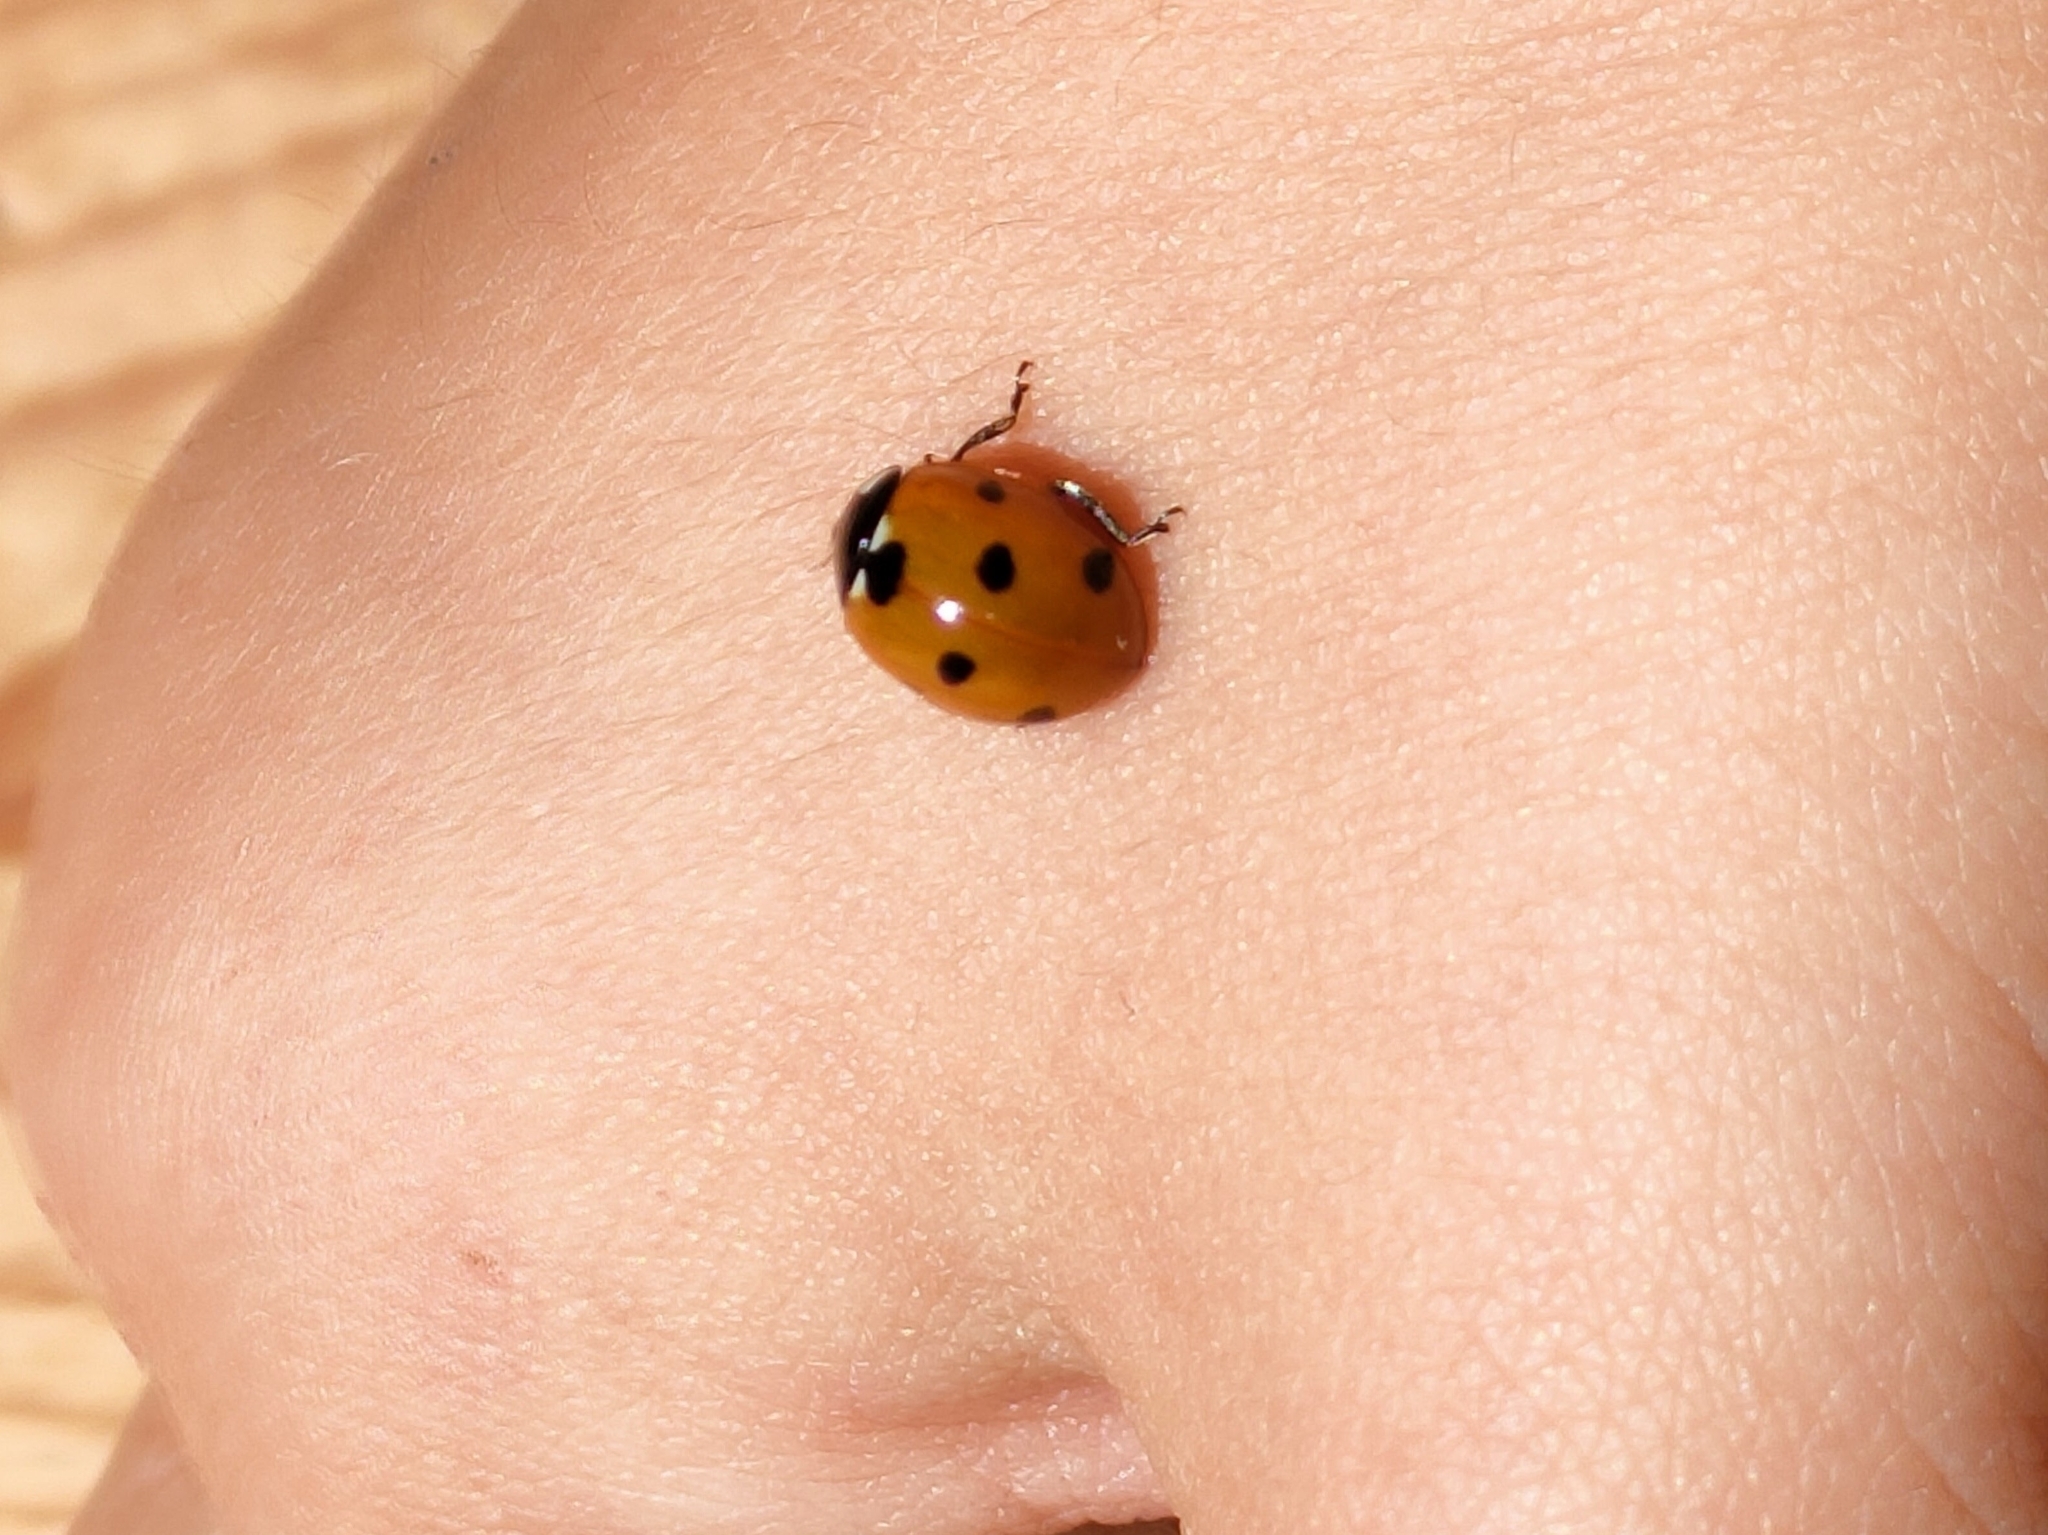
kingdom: Animalia
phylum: Arthropoda
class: Insecta
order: Coleoptera
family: Coccinellidae
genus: Coccinella
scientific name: Coccinella septempunctata
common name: Sevenspotted lady beetle
